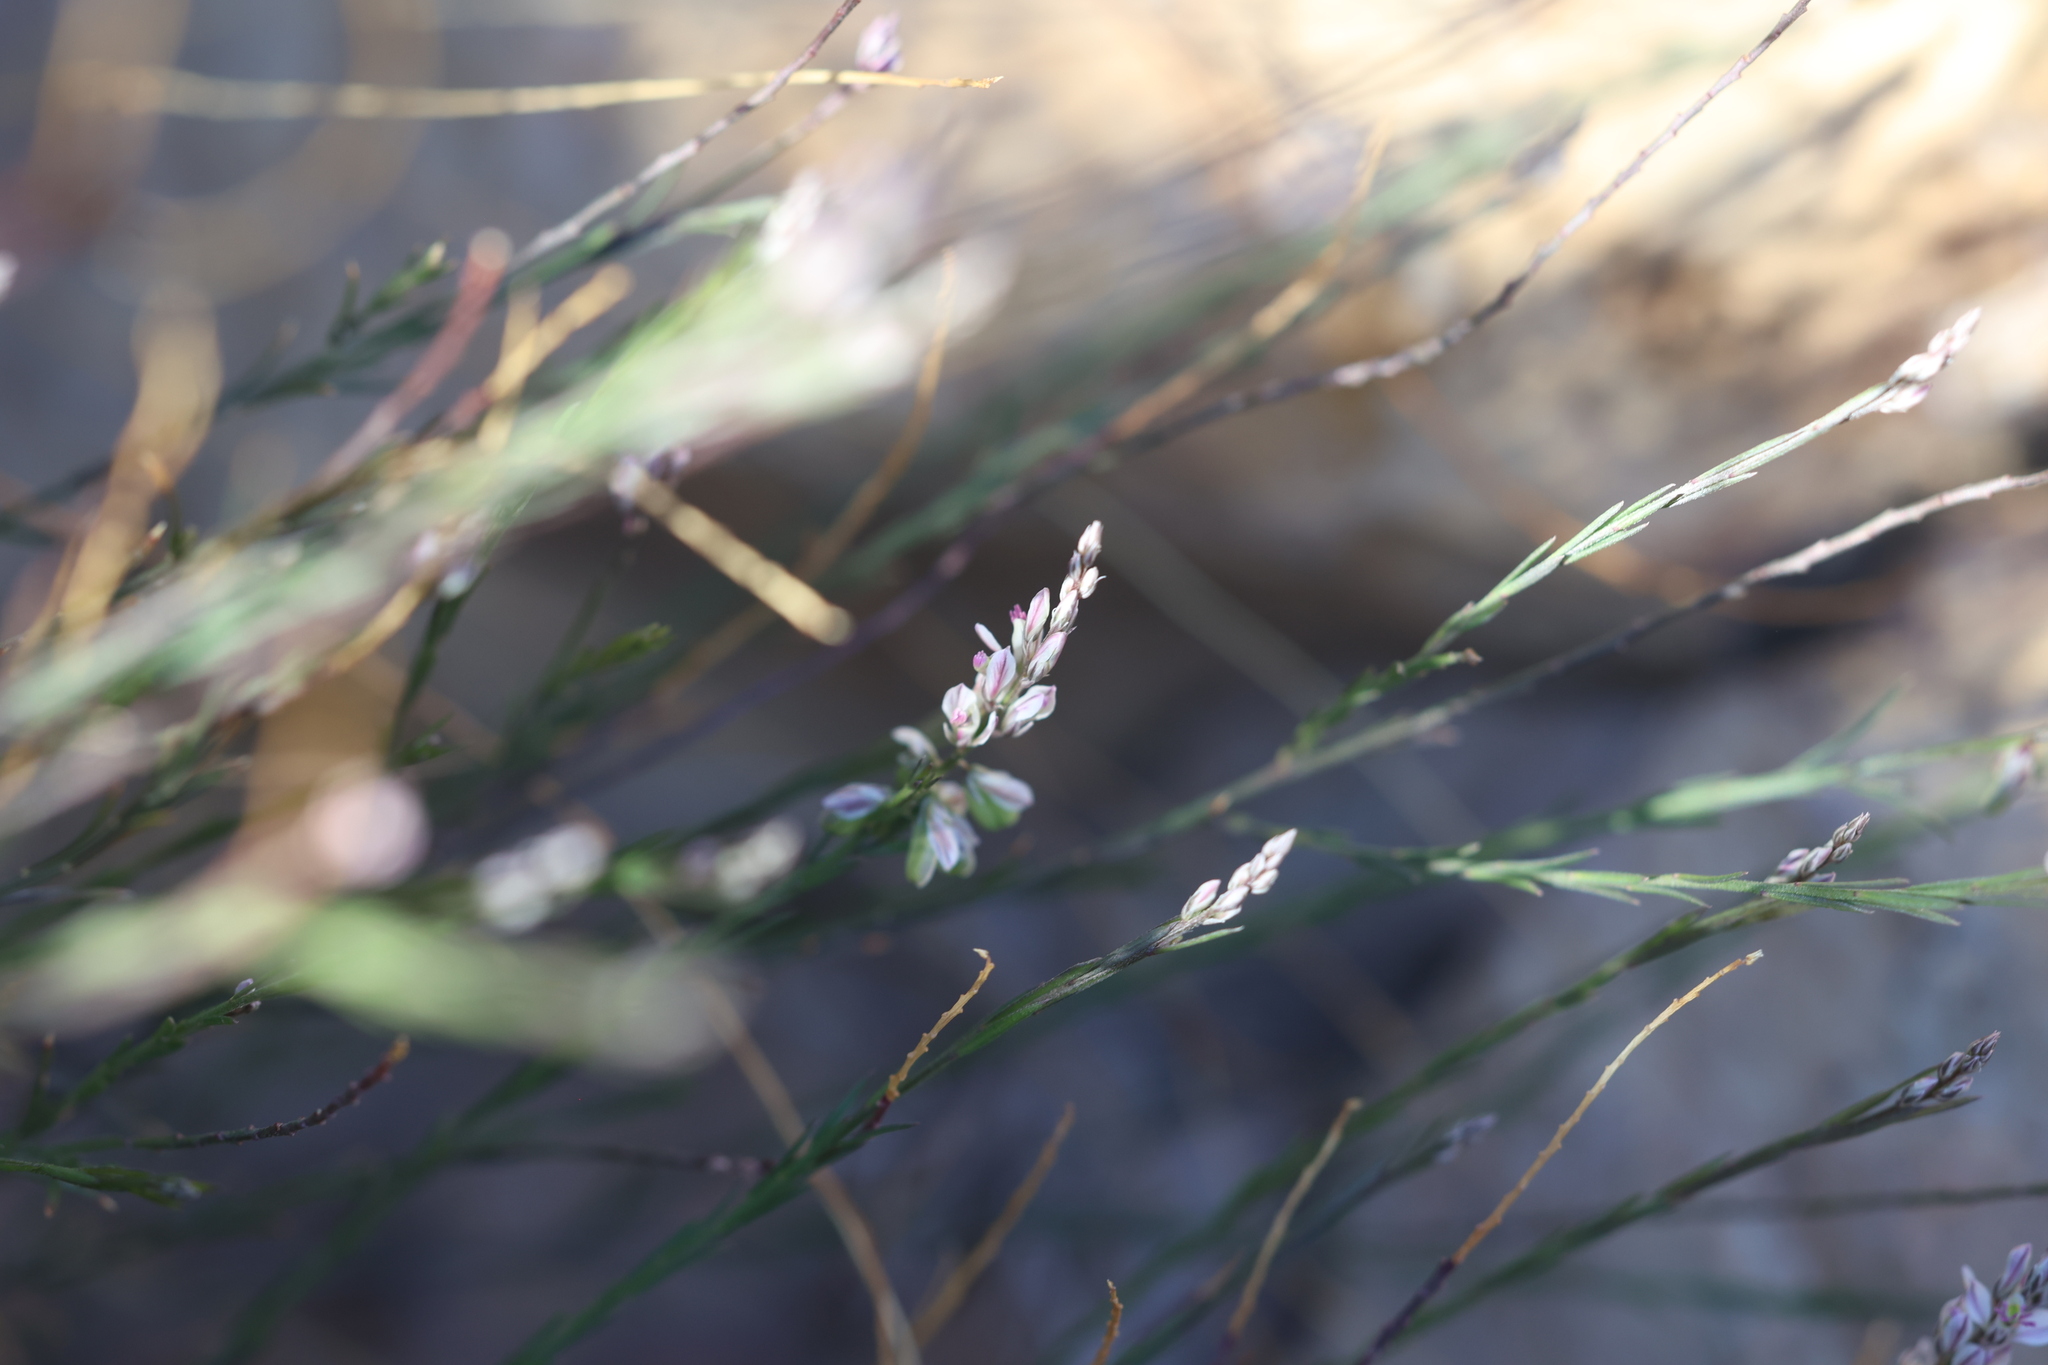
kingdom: Plantae
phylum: Tracheophyta
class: Magnoliopsida
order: Fabales
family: Polygalaceae
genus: Polygala
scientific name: Polygala scoparioides
